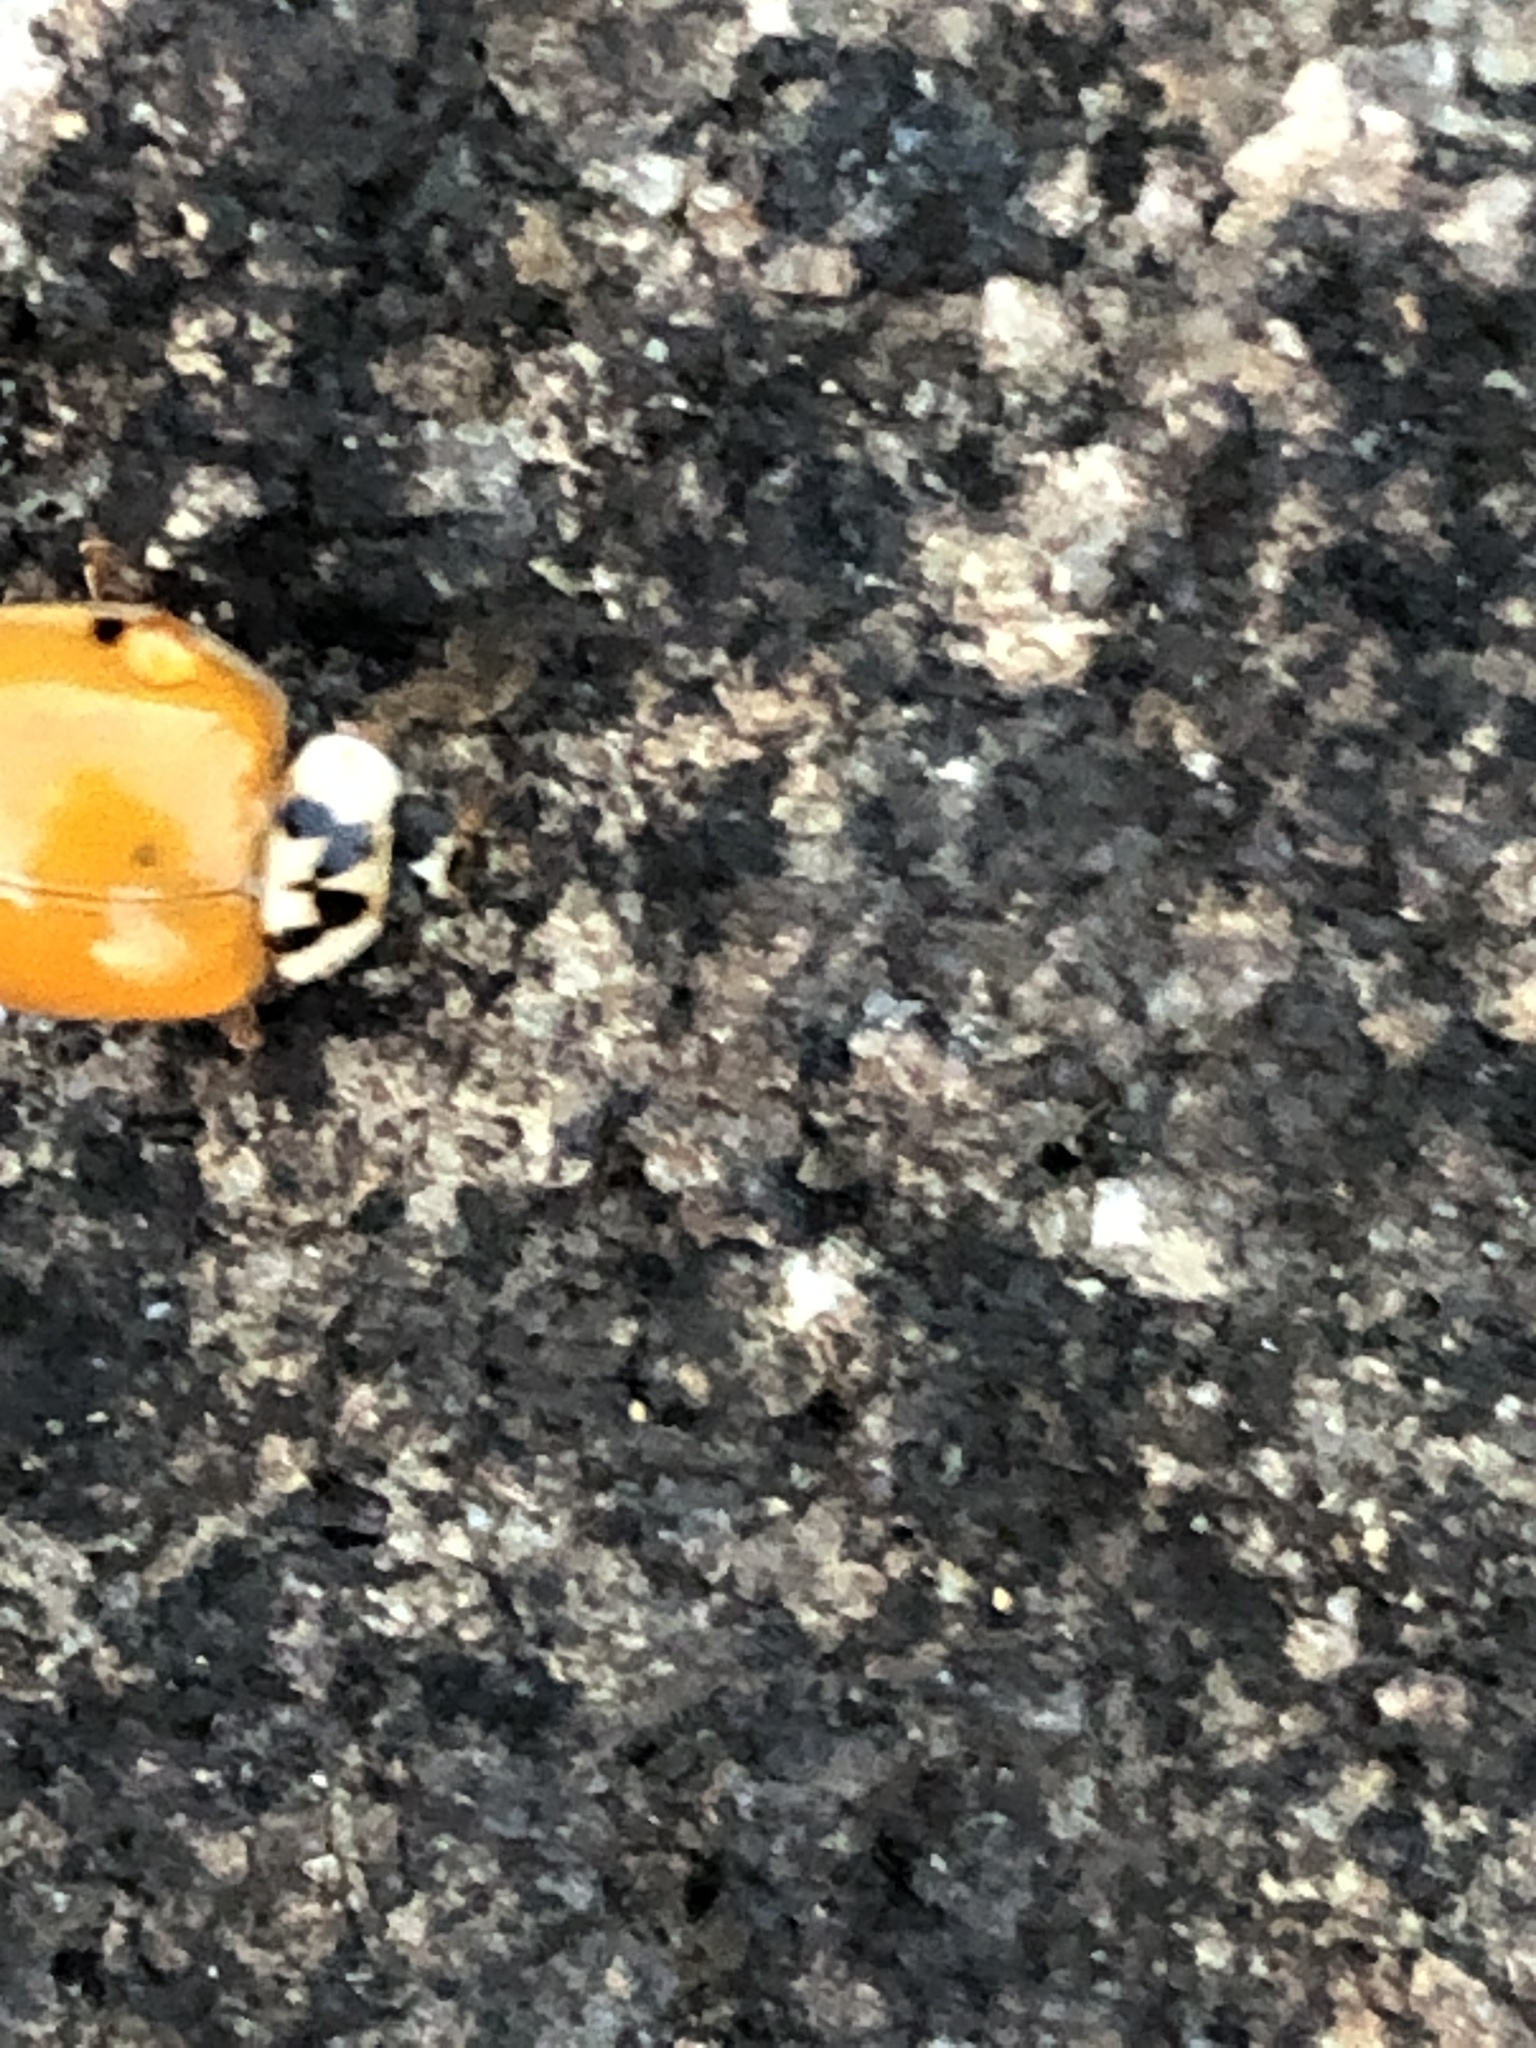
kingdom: Animalia
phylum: Arthropoda
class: Insecta
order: Coleoptera
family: Coccinellidae
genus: Harmonia
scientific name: Harmonia axyridis
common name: Harlequin ladybird
